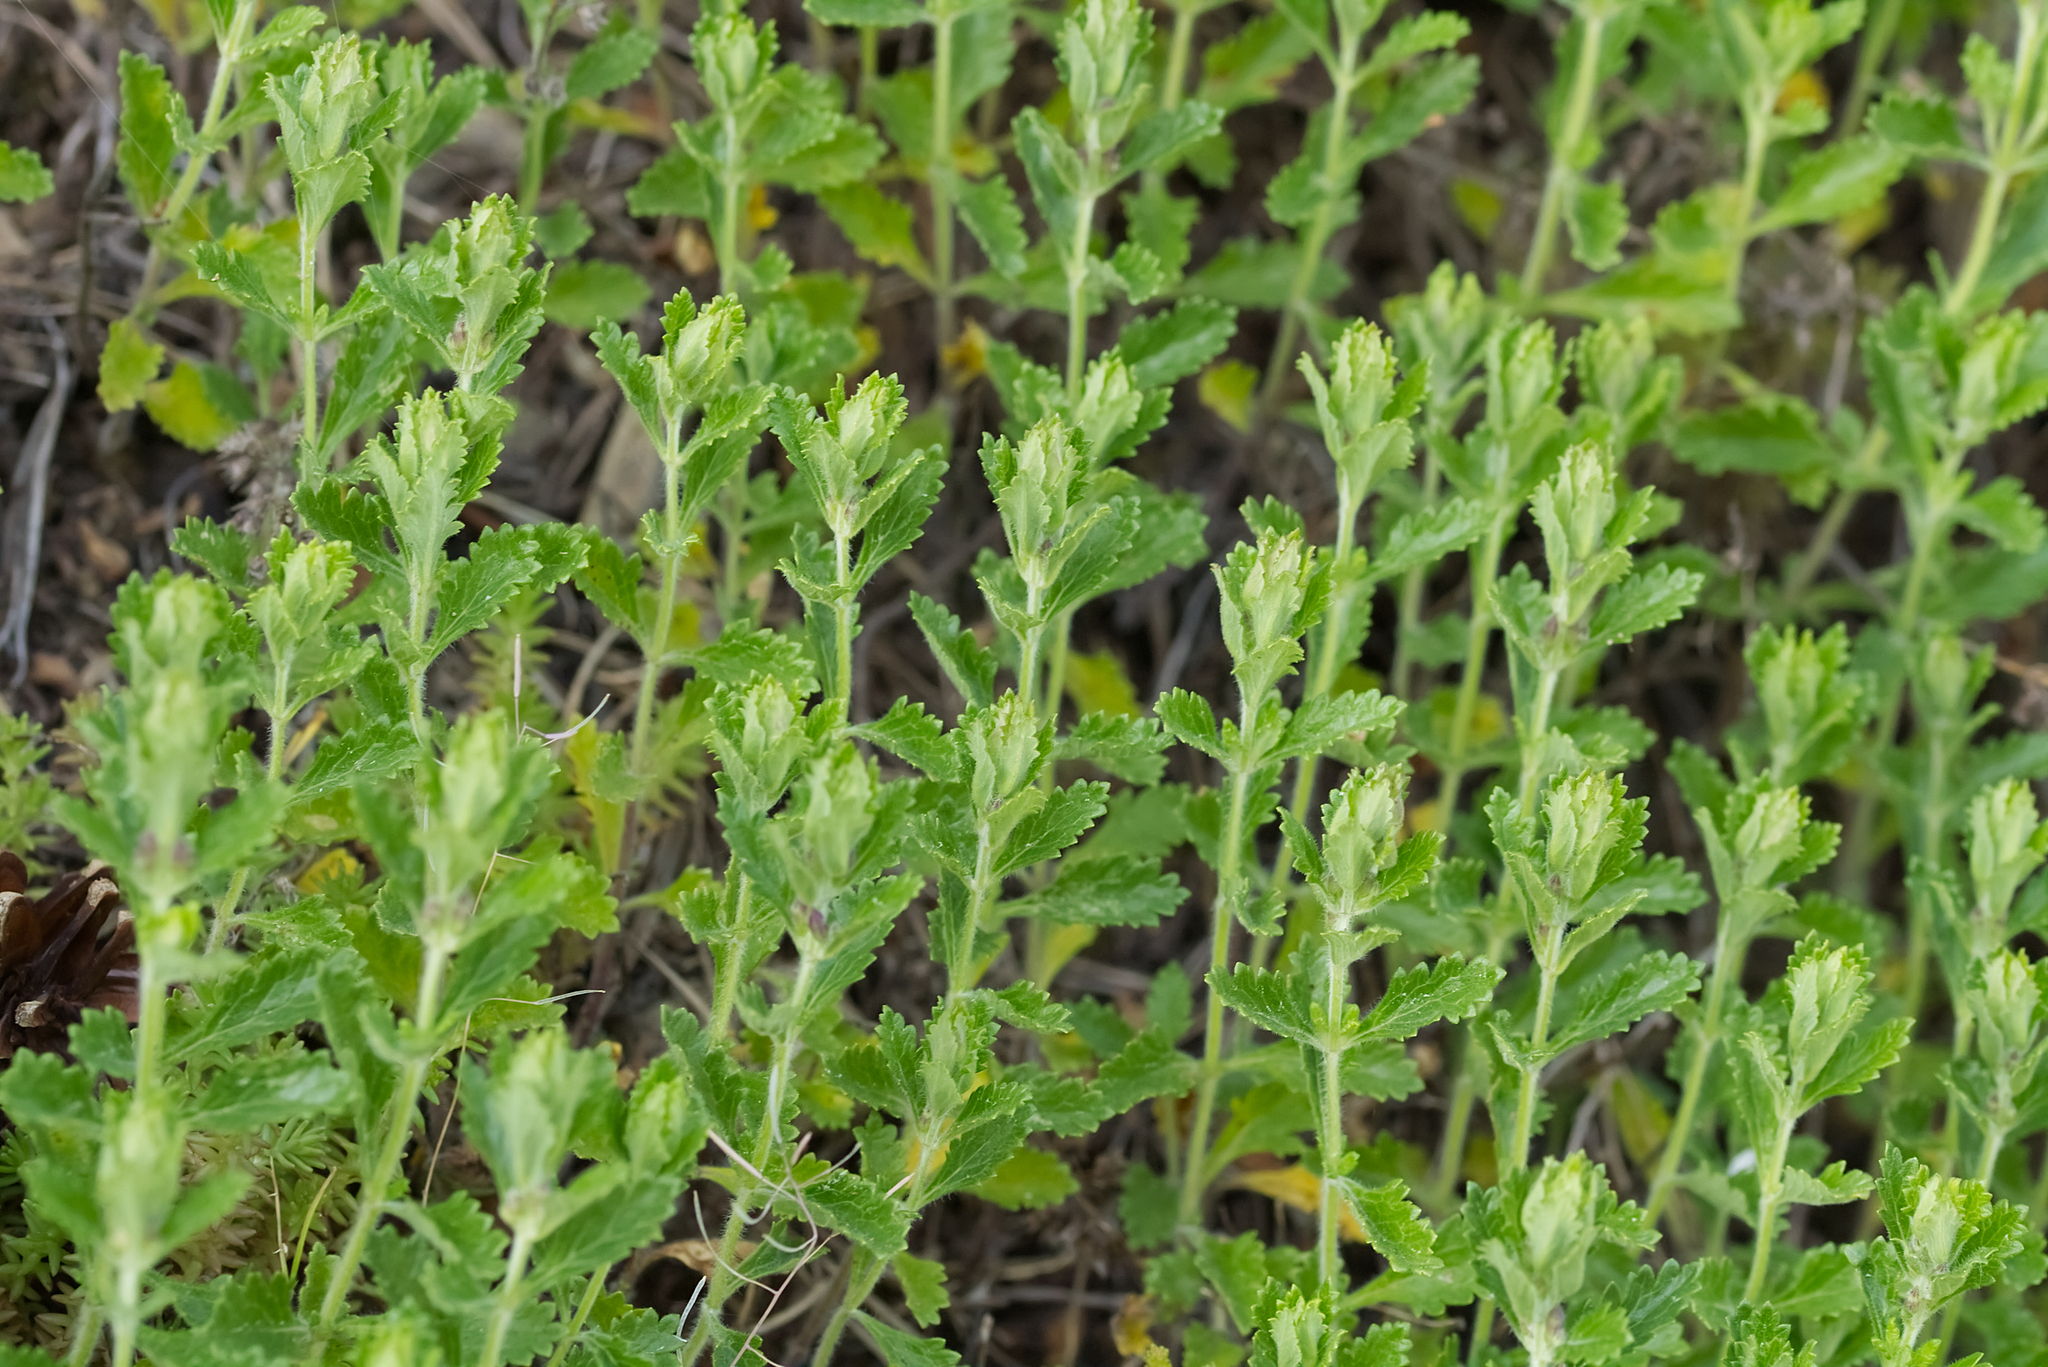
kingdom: Plantae
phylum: Tracheophyta
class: Magnoliopsida
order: Lamiales
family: Lamiaceae
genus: Teucrium
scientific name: Teucrium chamaedrys
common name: Wall germander
